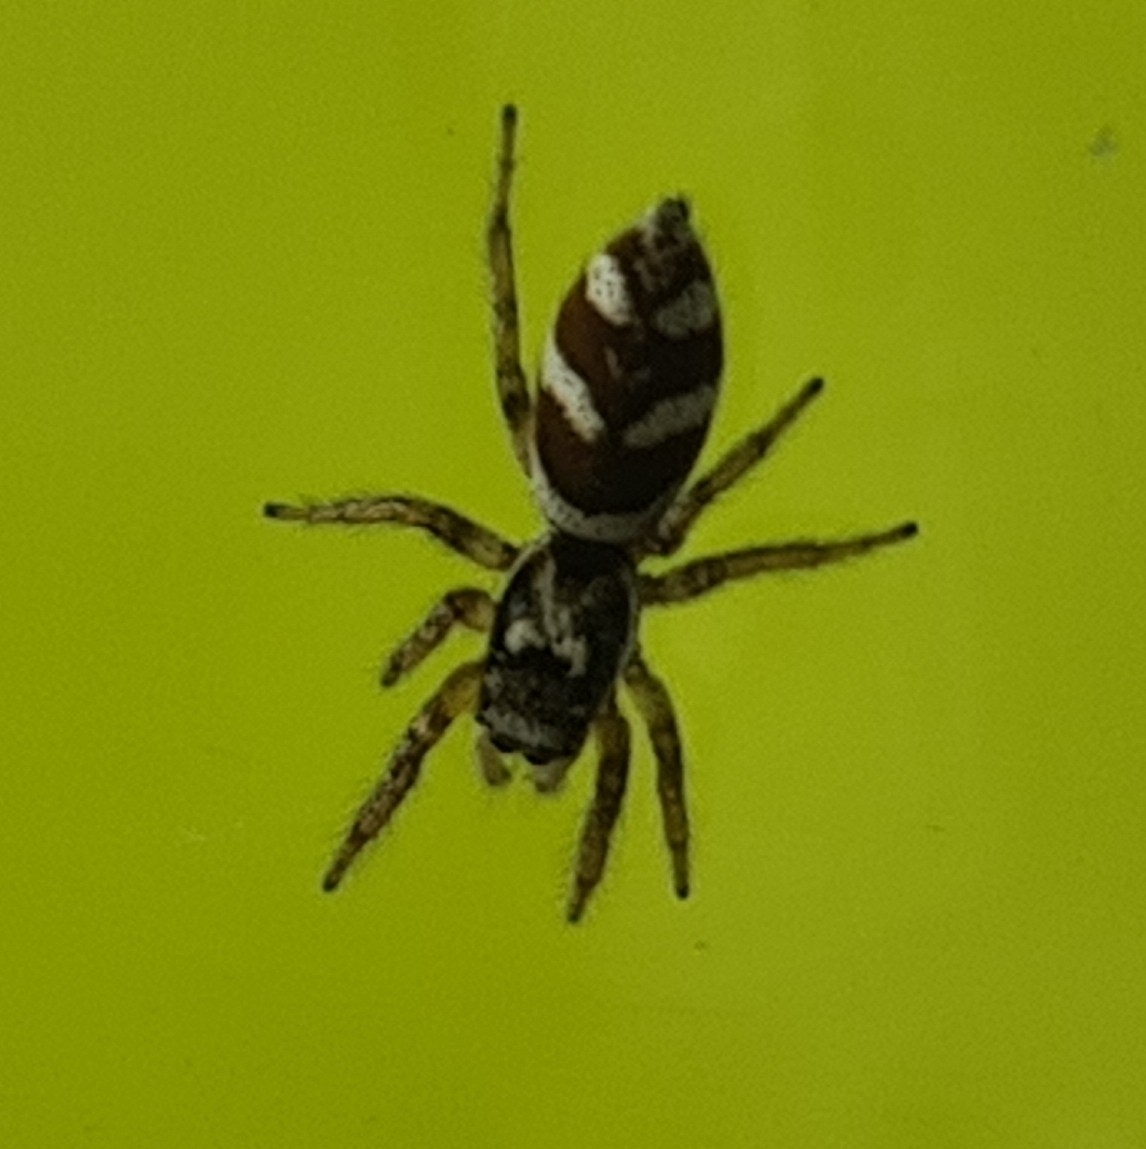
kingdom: Animalia
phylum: Arthropoda
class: Arachnida
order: Araneae
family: Salticidae
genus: Salticus
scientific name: Salticus scenicus
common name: Zebra jumper
